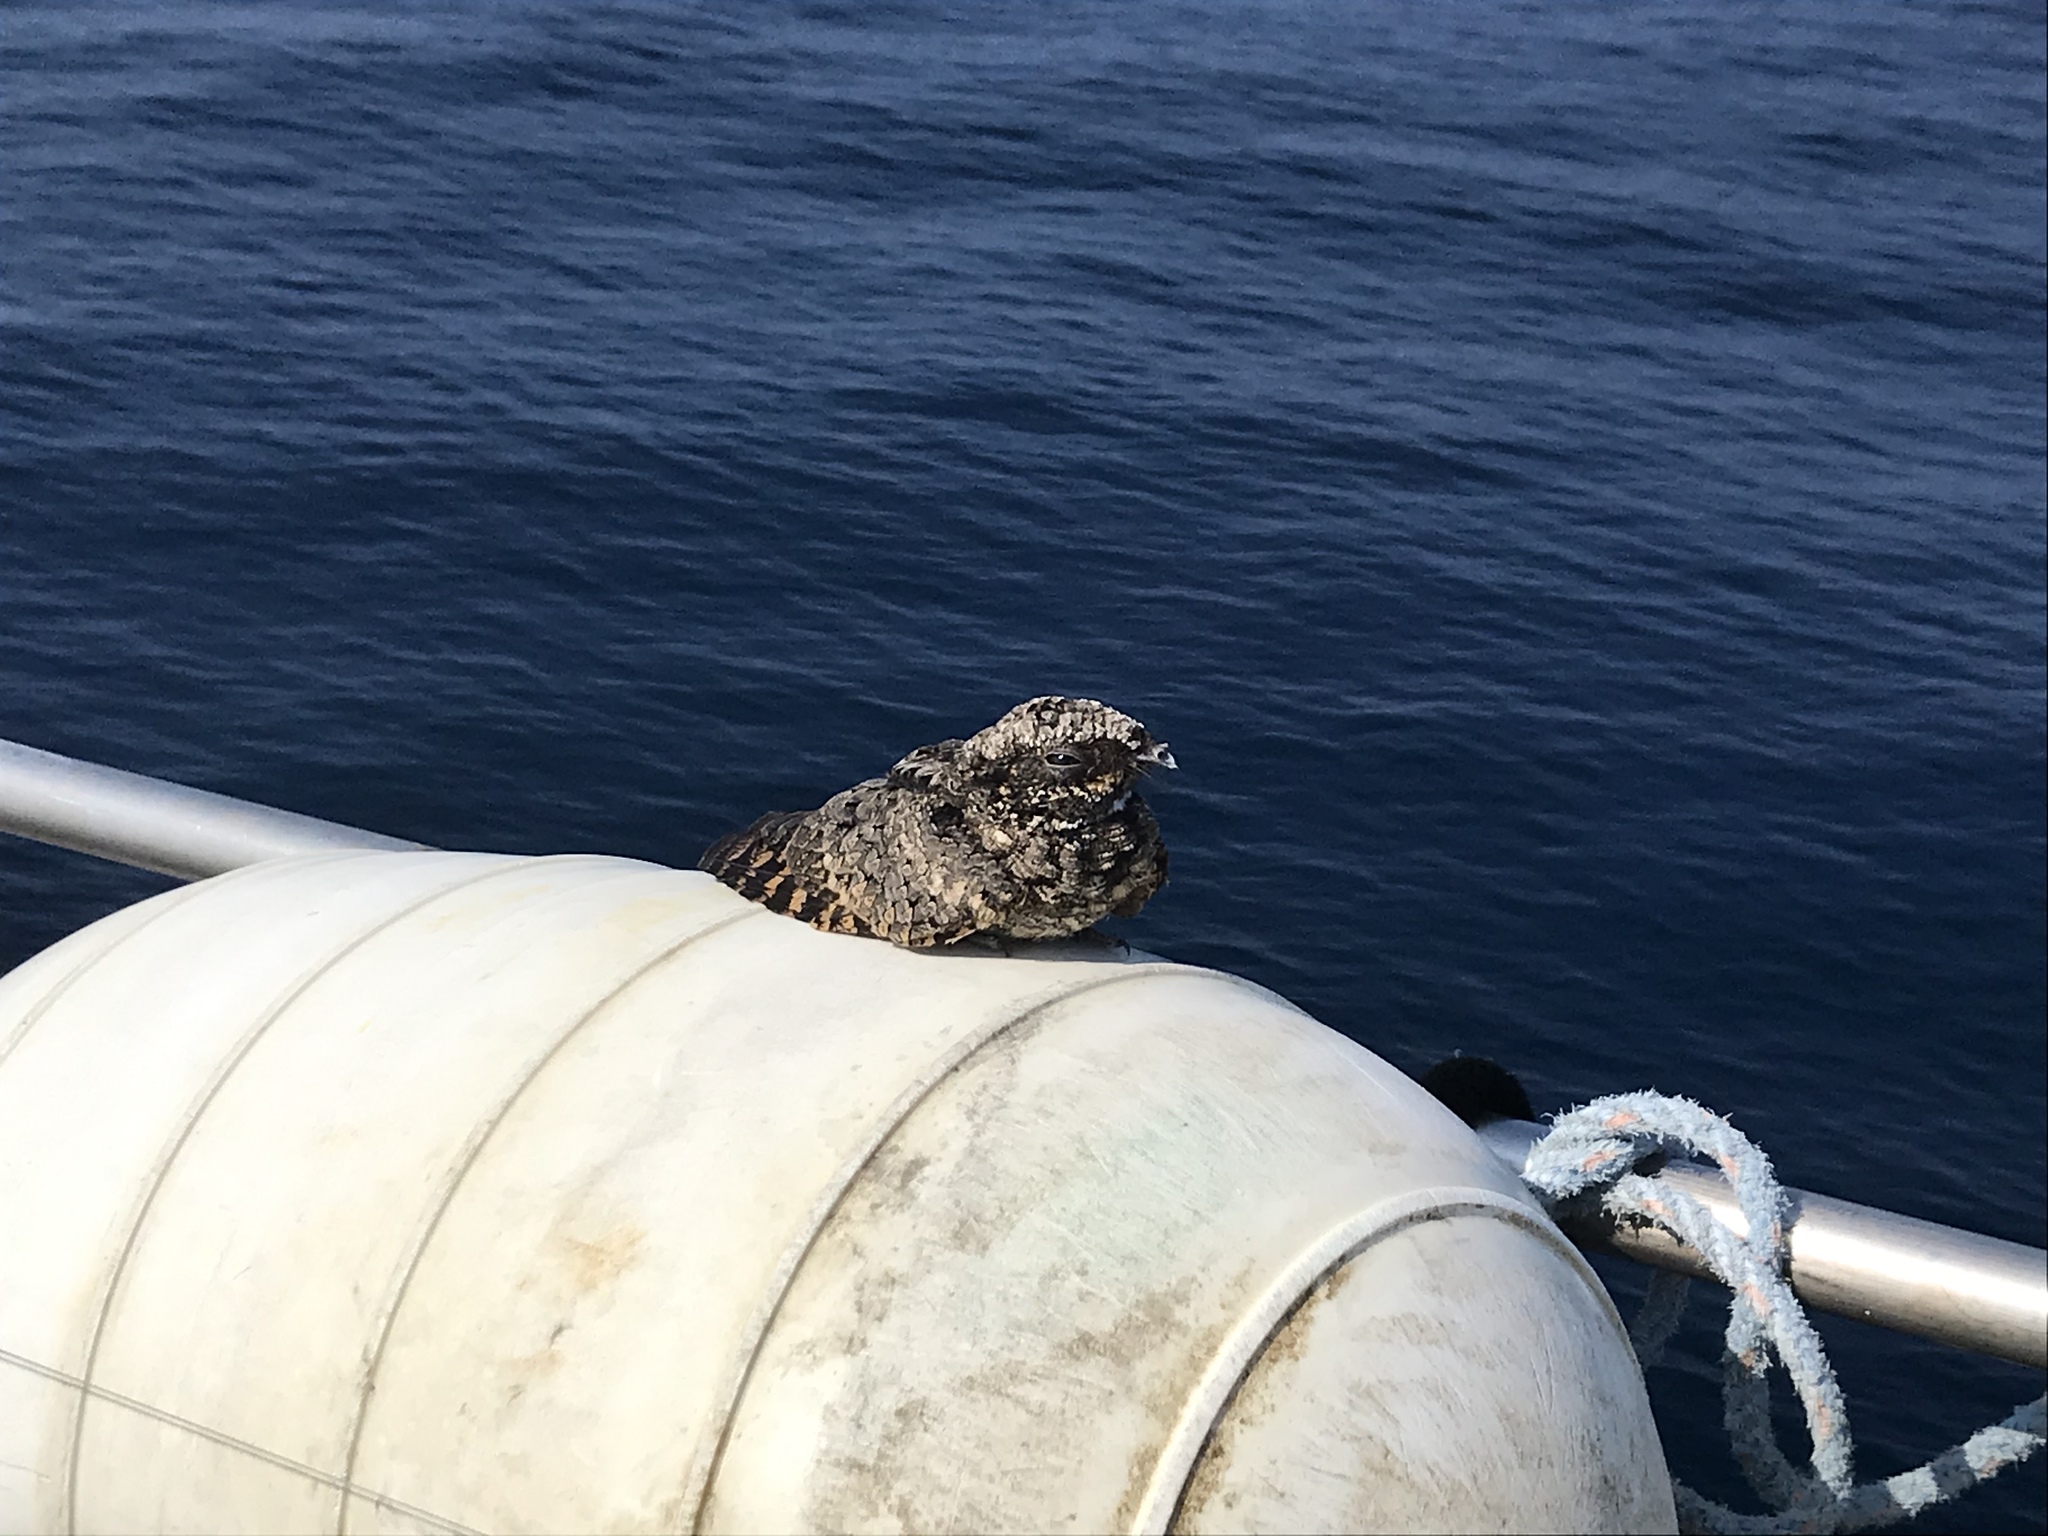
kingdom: Animalia
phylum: Chordata
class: Aves
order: Caprimulgiformes
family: Caprimulgidae
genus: Phalaenoptilus
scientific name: Phalaenoptilus nuttallii
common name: Common poorwill
